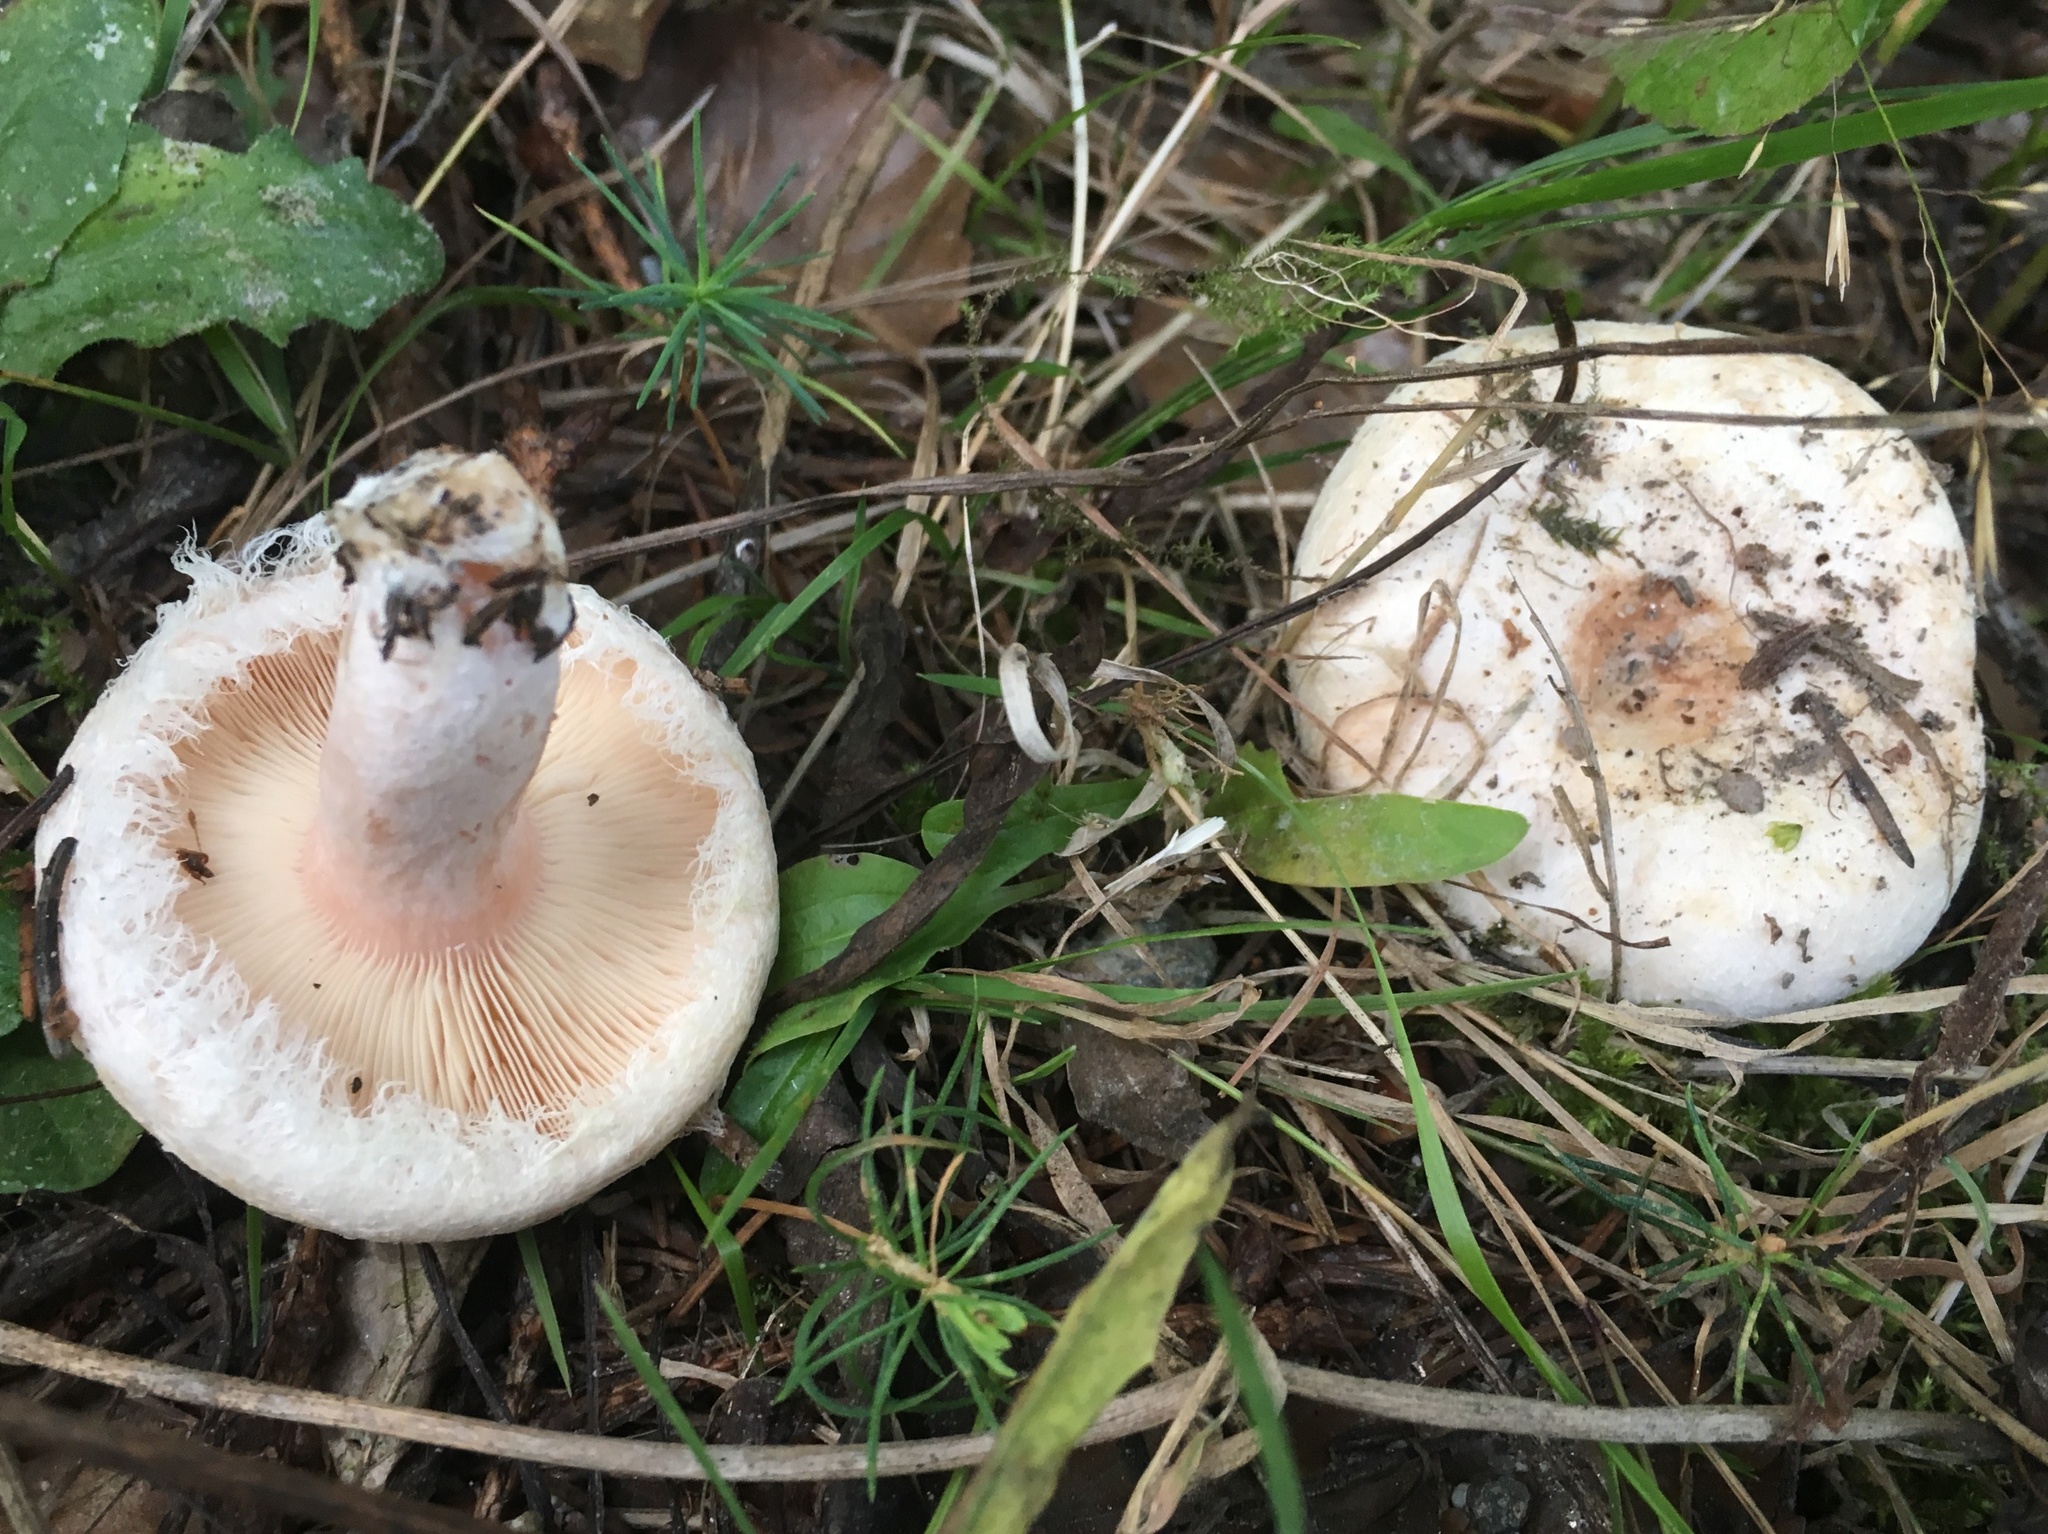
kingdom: Fungi
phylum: Basidiomycota
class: Agaricomycetes
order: Russulales
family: Russulaceae
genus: Lactarius
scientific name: Lactarius pubescens
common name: Bearded milkcap
